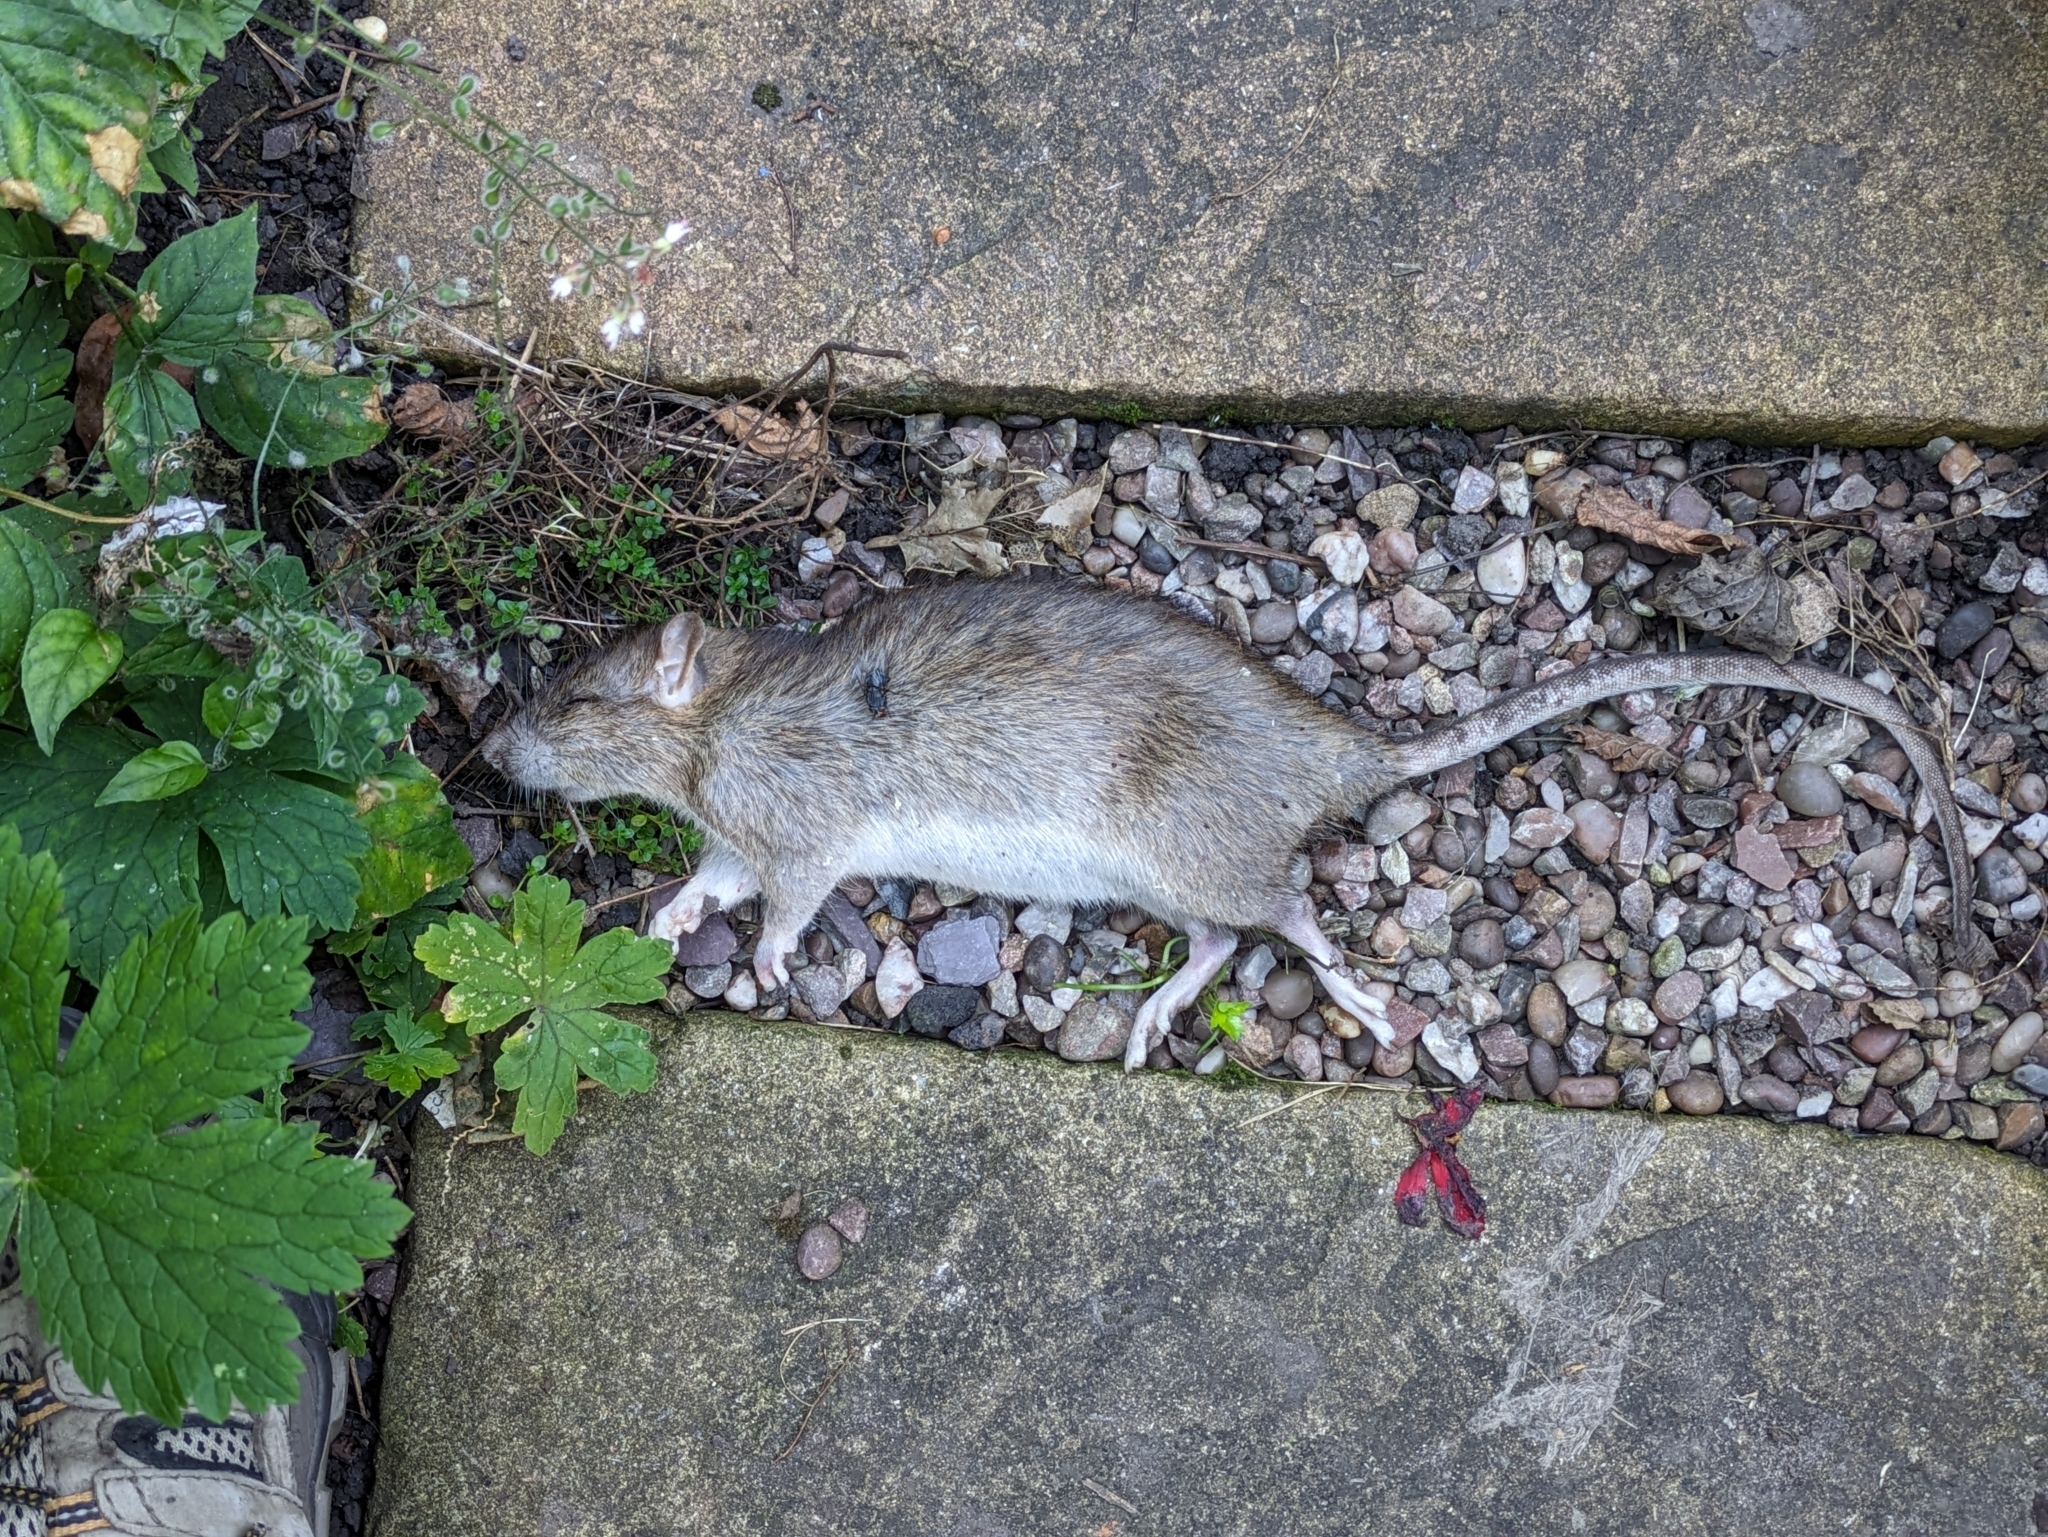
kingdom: Animalia
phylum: Chordata
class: Mammalia
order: Rodentia
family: Muridae
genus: Rattus
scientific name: Rattus norvegicus
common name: Brown rat
